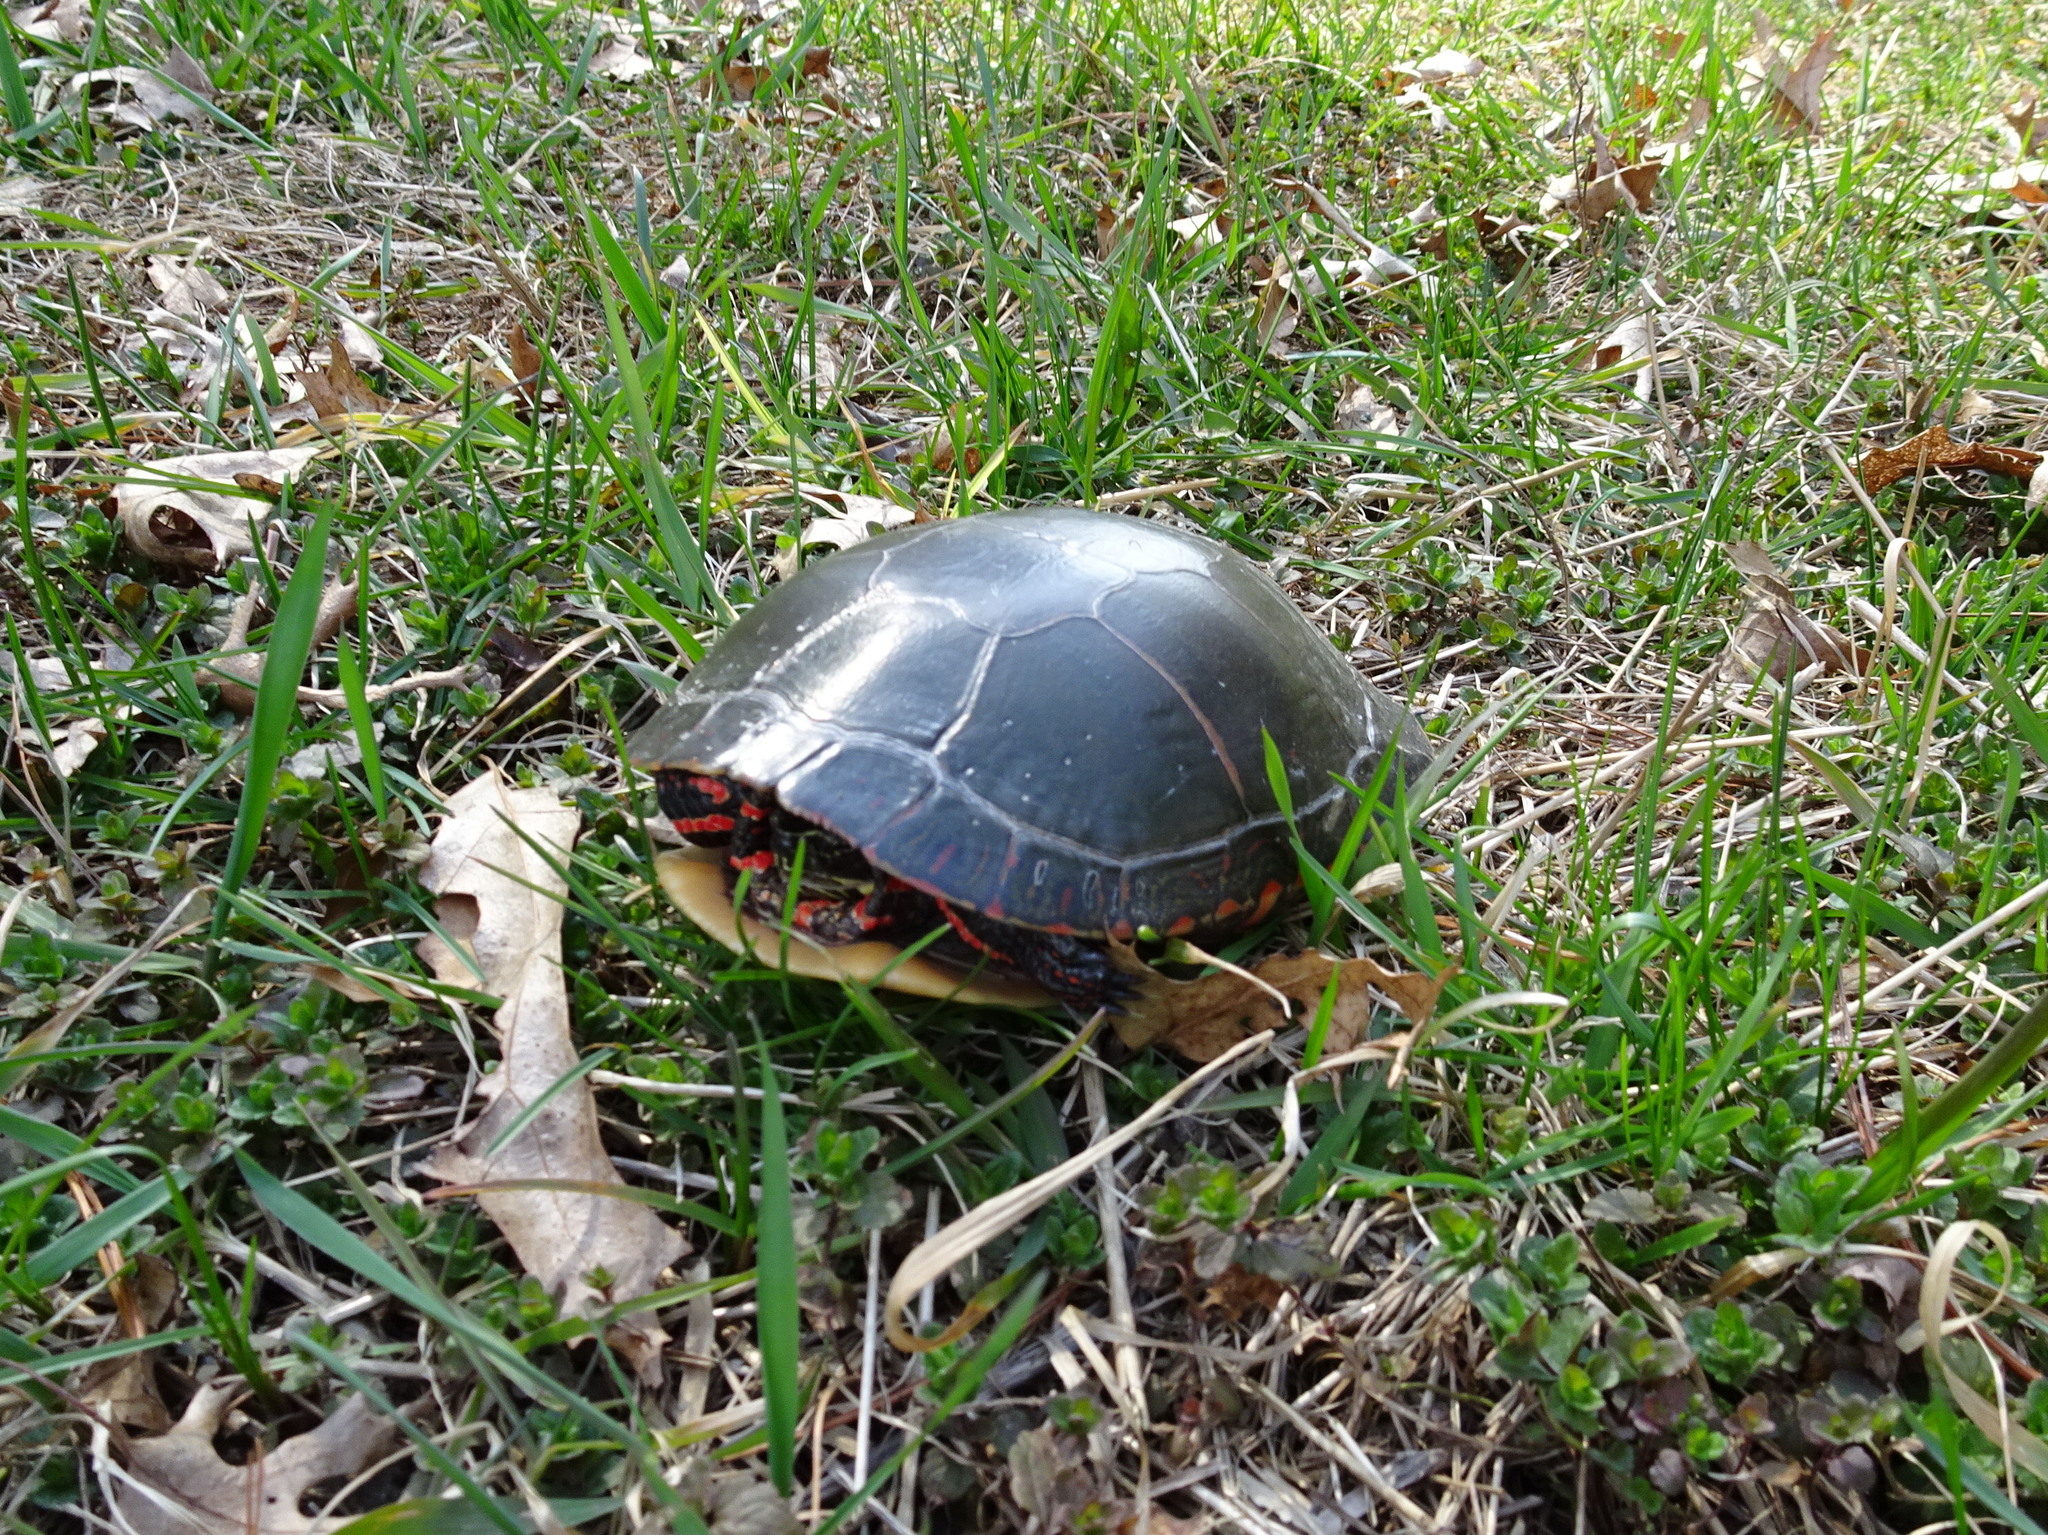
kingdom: Animalia
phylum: Chordata
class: Testudines
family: Emydidae
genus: Chrysemys
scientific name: Chrysemys picta
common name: Painted turtle
